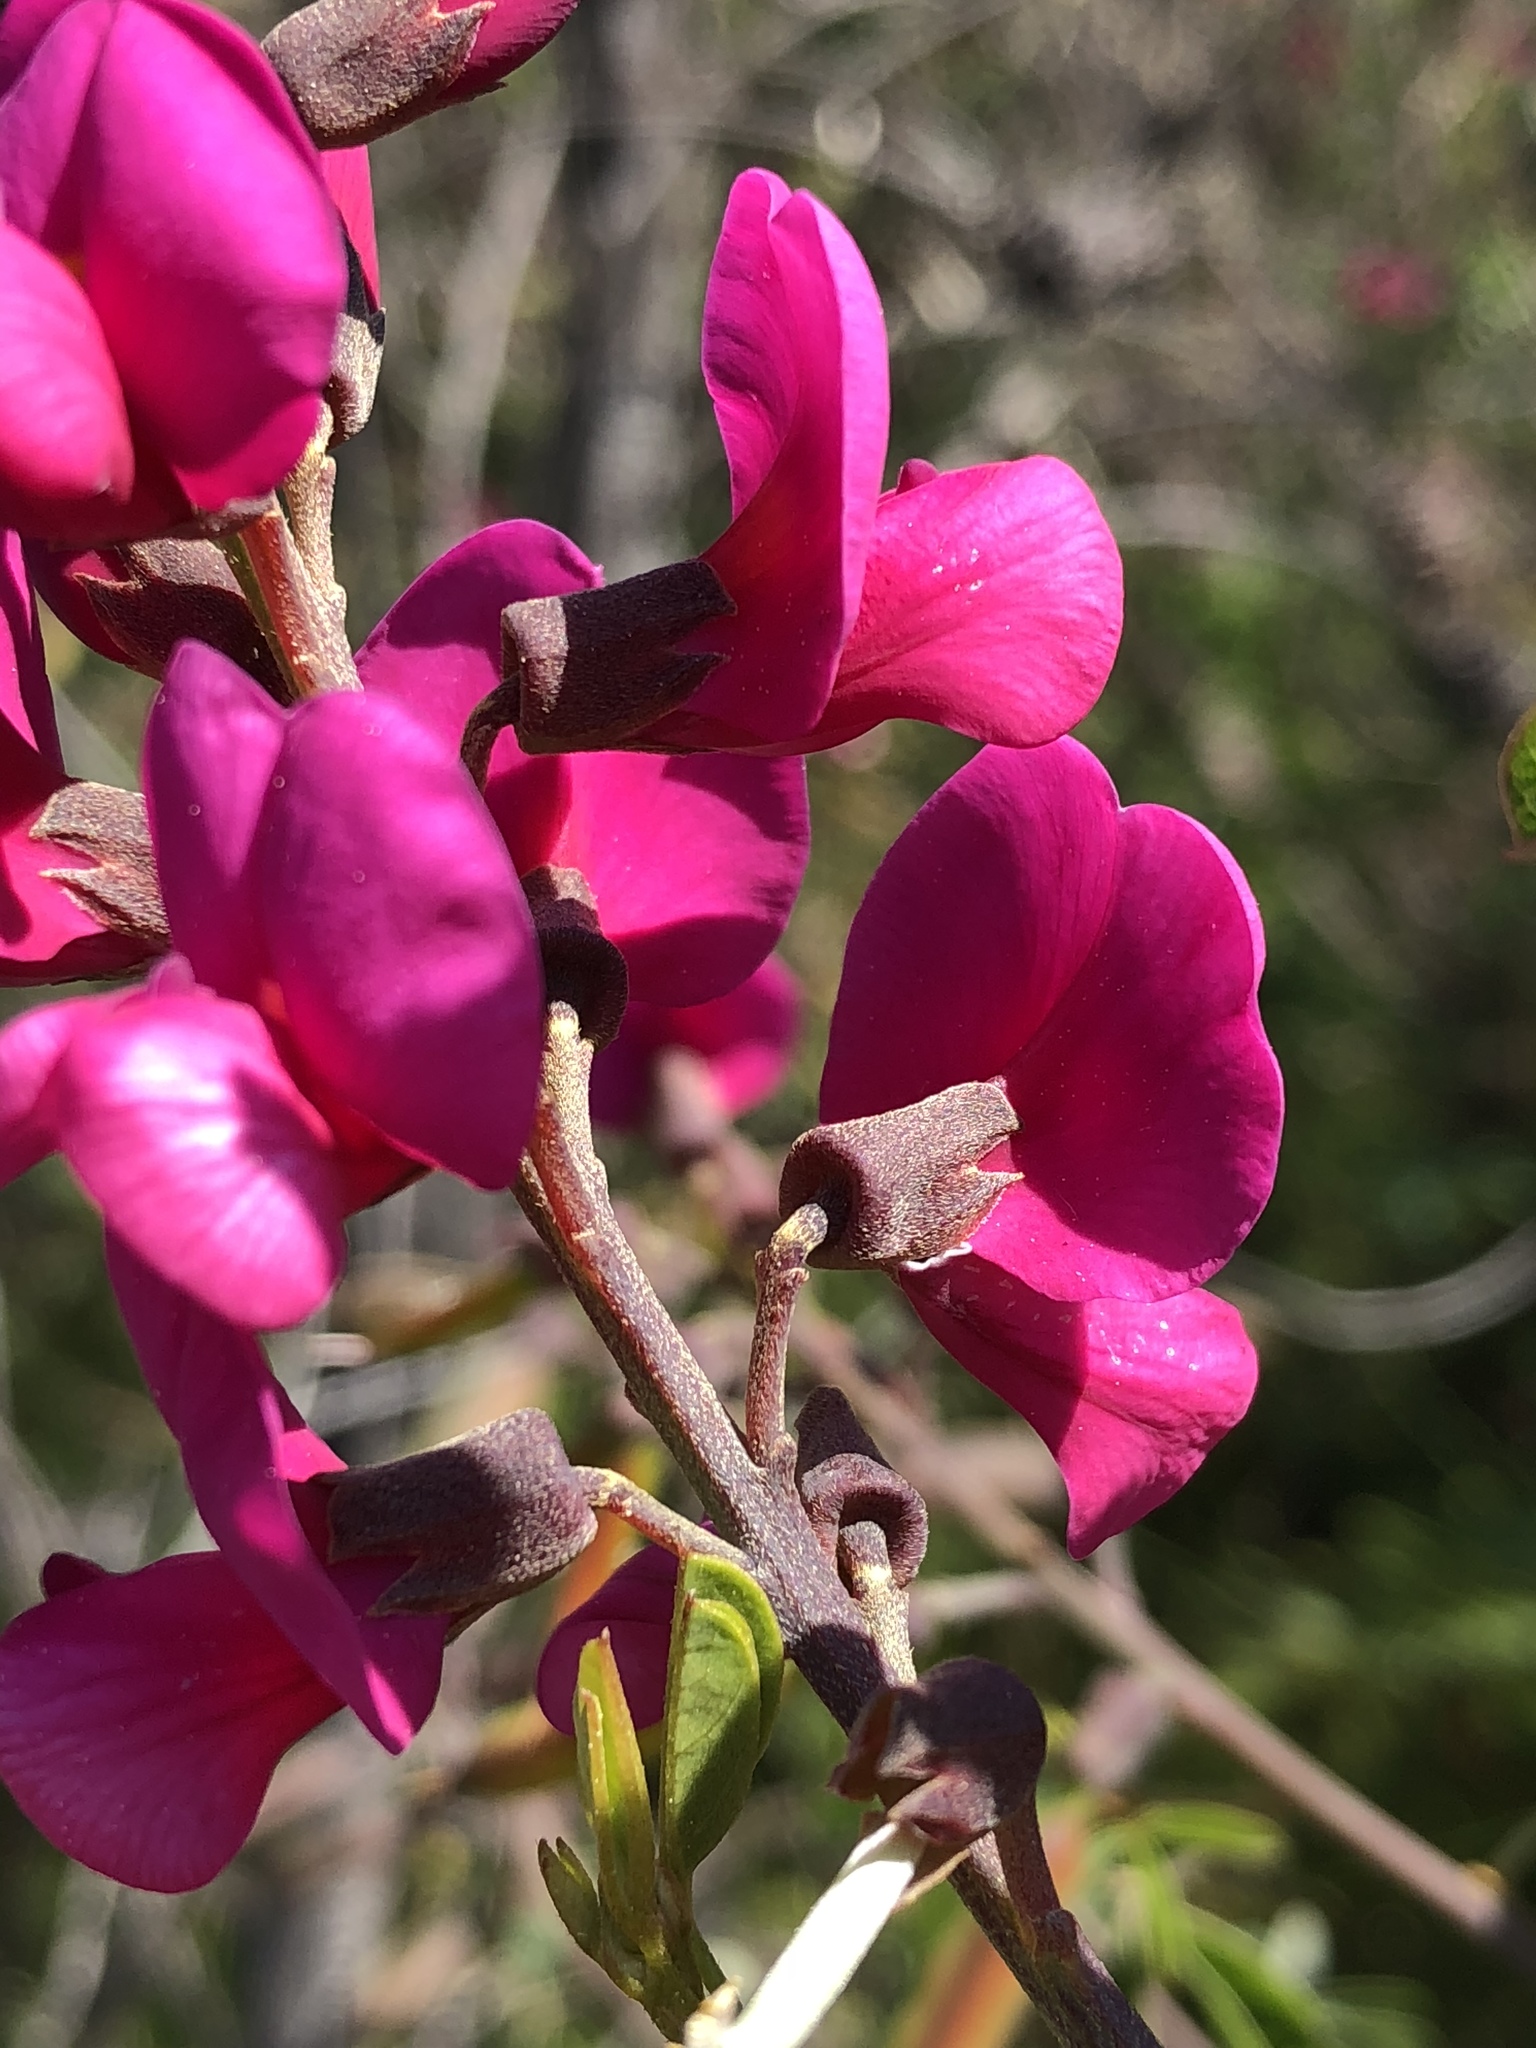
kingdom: Plantae
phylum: Tracheophyta
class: Magnoliopsida
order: Fabales
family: Fabaceae
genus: Hypocalyptus
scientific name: Hypocalyptus coluteoides
